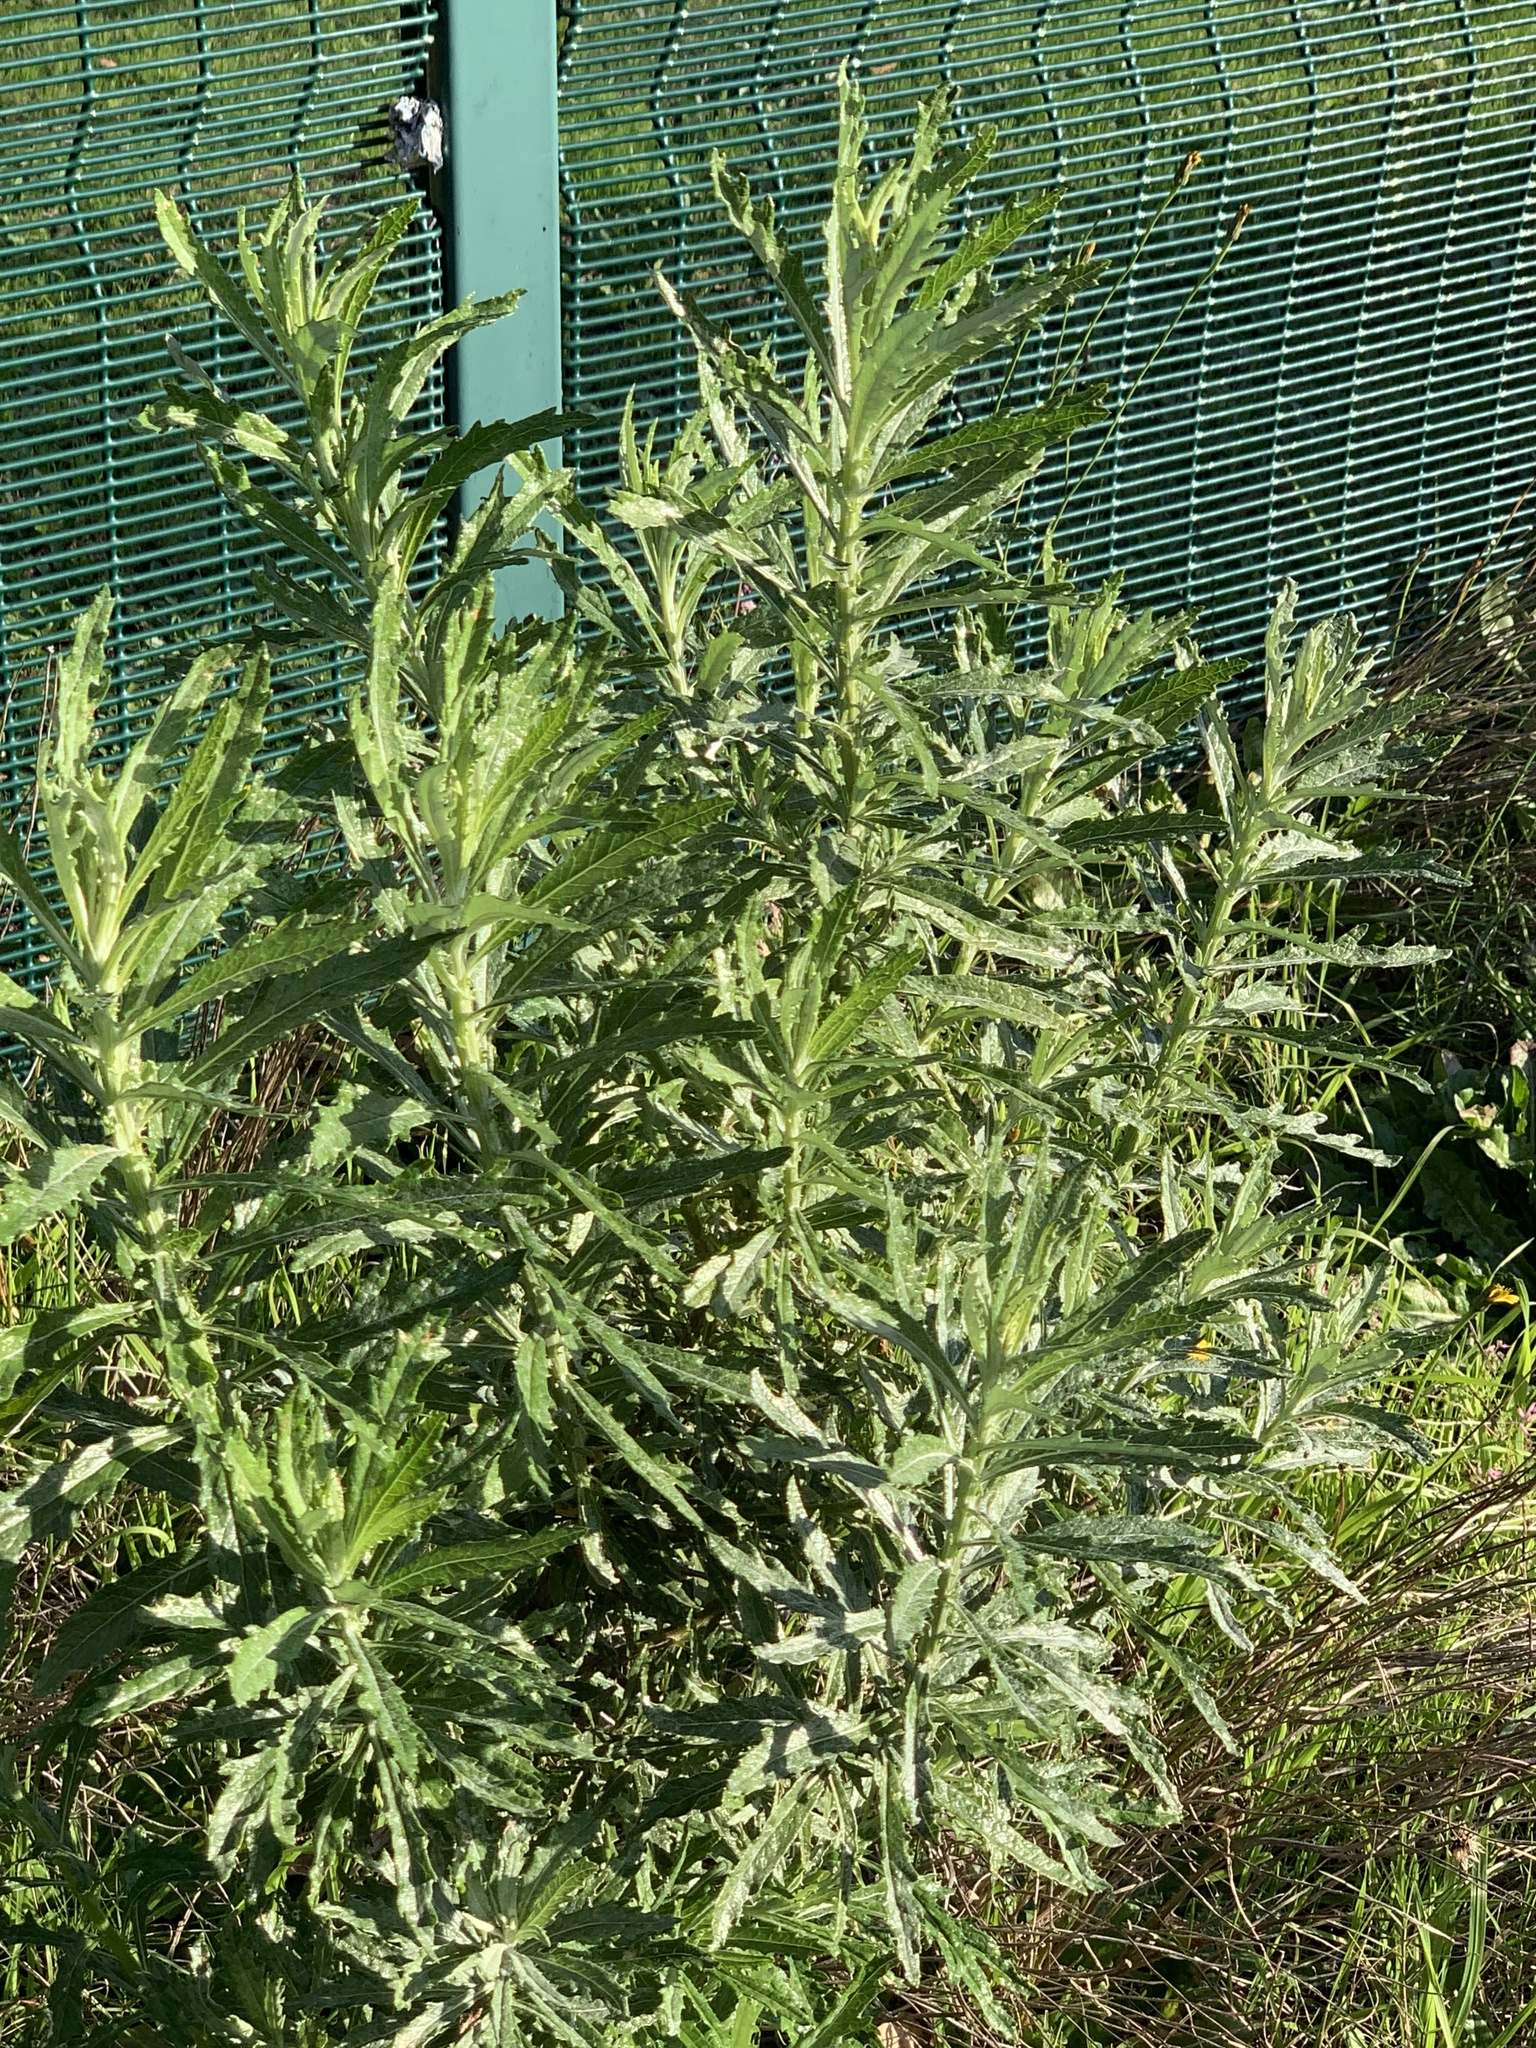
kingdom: Plantae
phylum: Tracheophyta
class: Magnoliopsida
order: Asterales
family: Asteraceae
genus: Senecio
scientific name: Senecio pterophorus
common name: Shoddy ragwort
